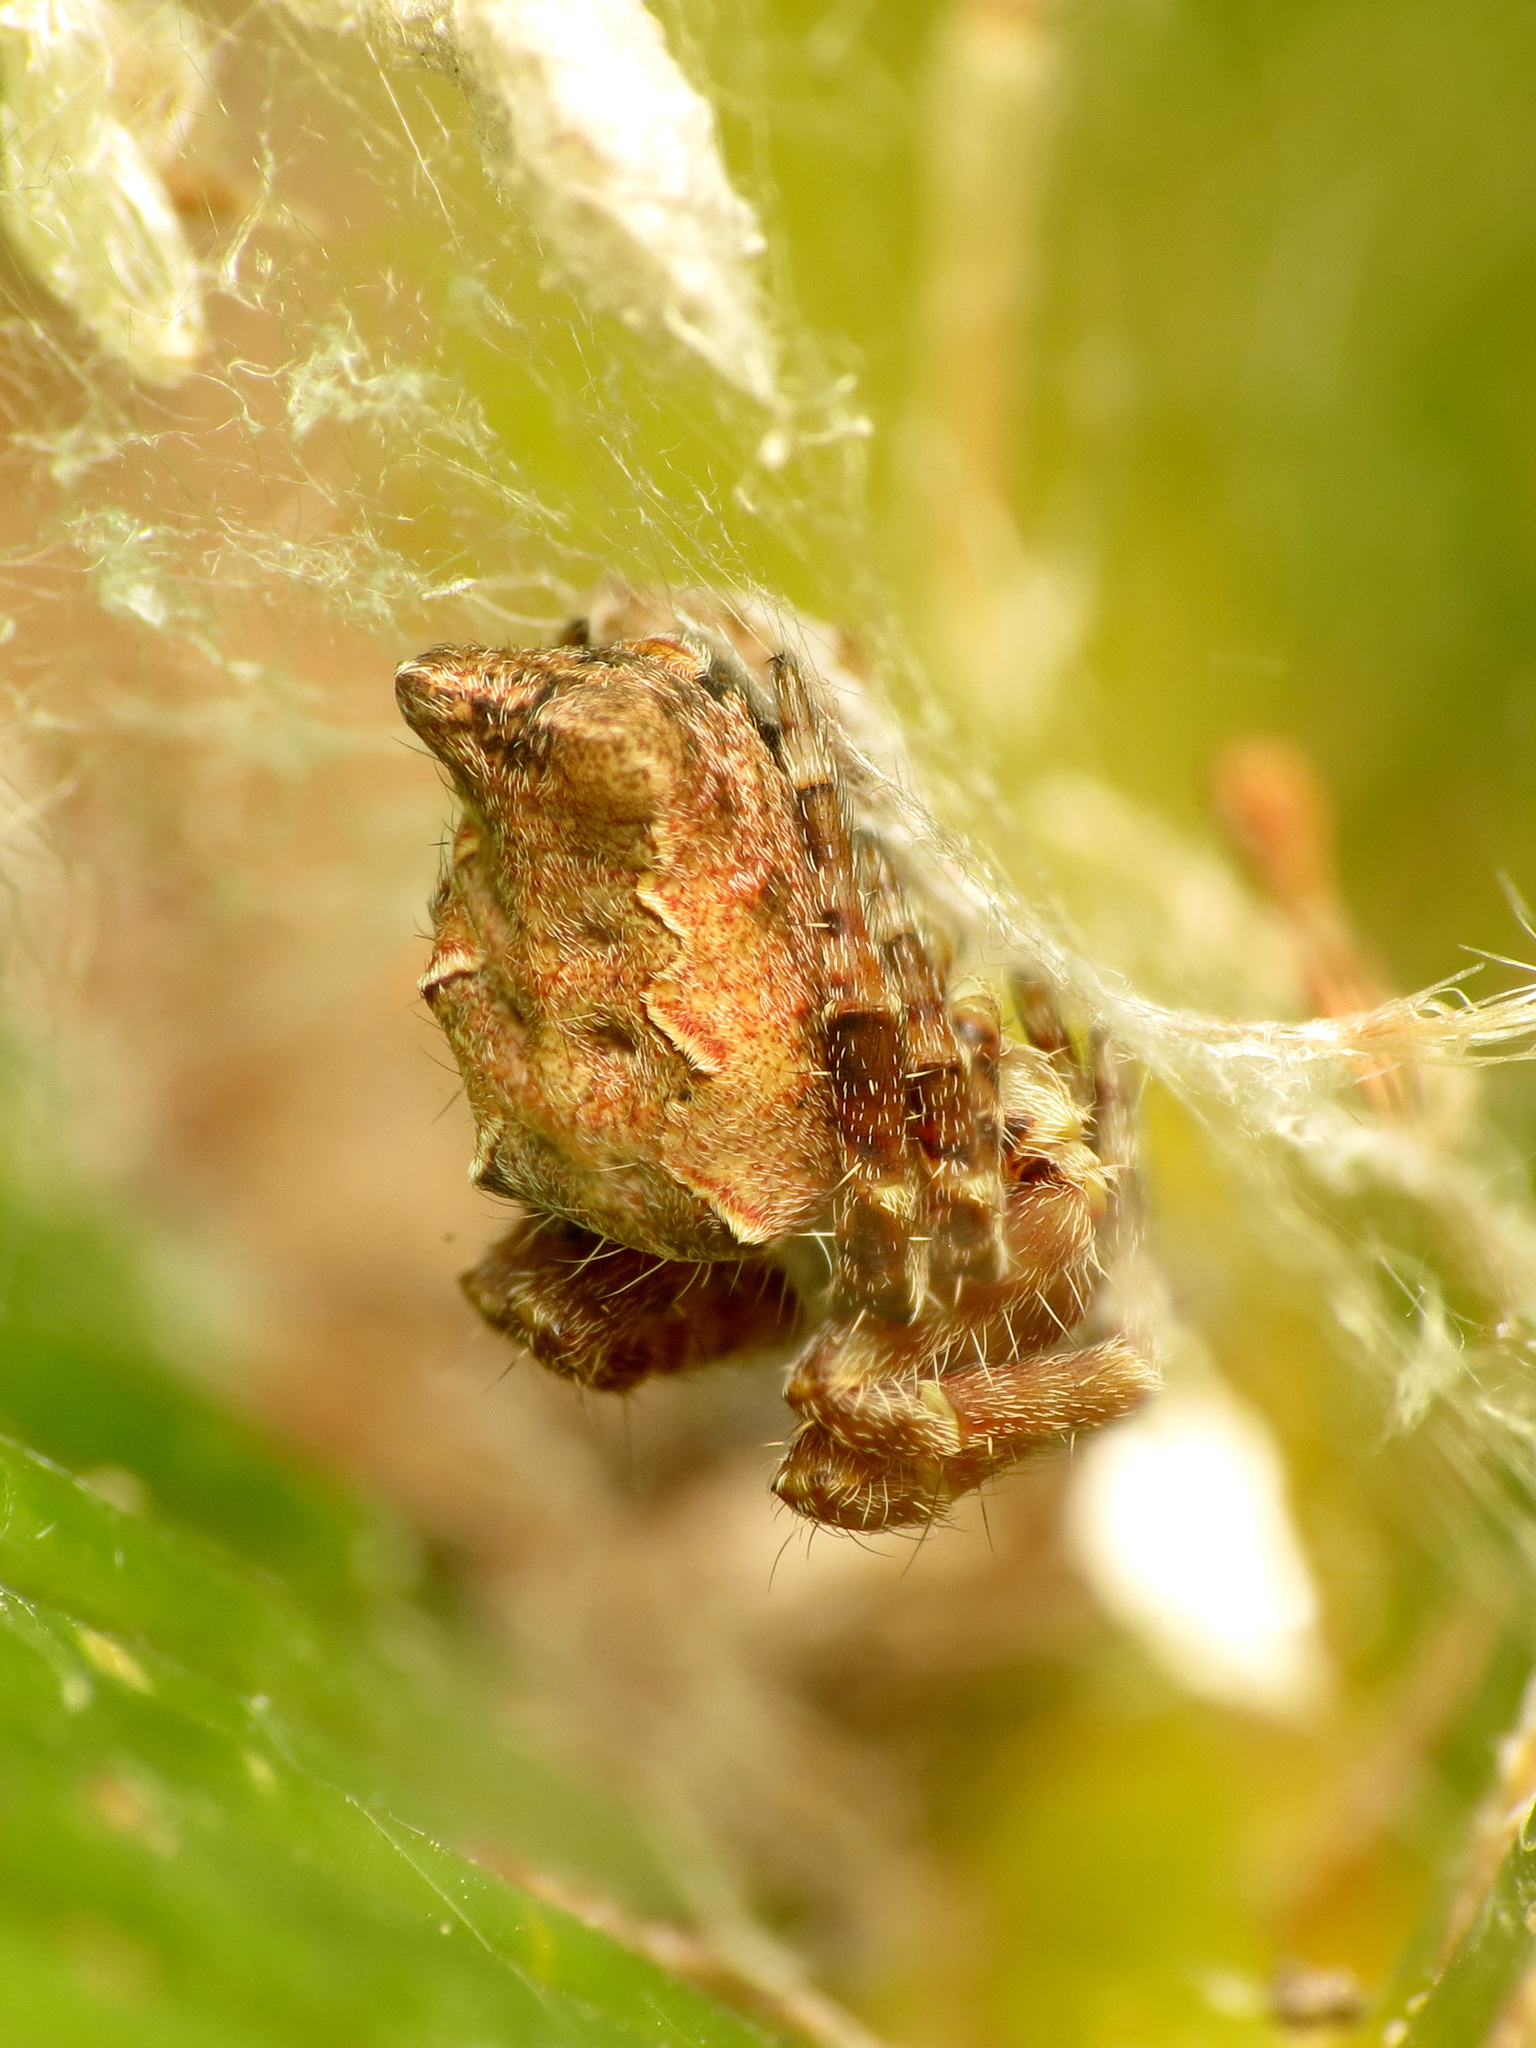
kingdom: Animalia
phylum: Arthropoda
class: Arachnida
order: Araneae
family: Araneidae
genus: Cyrtophora
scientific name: Cyrtophora citricola
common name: Orb weavers
